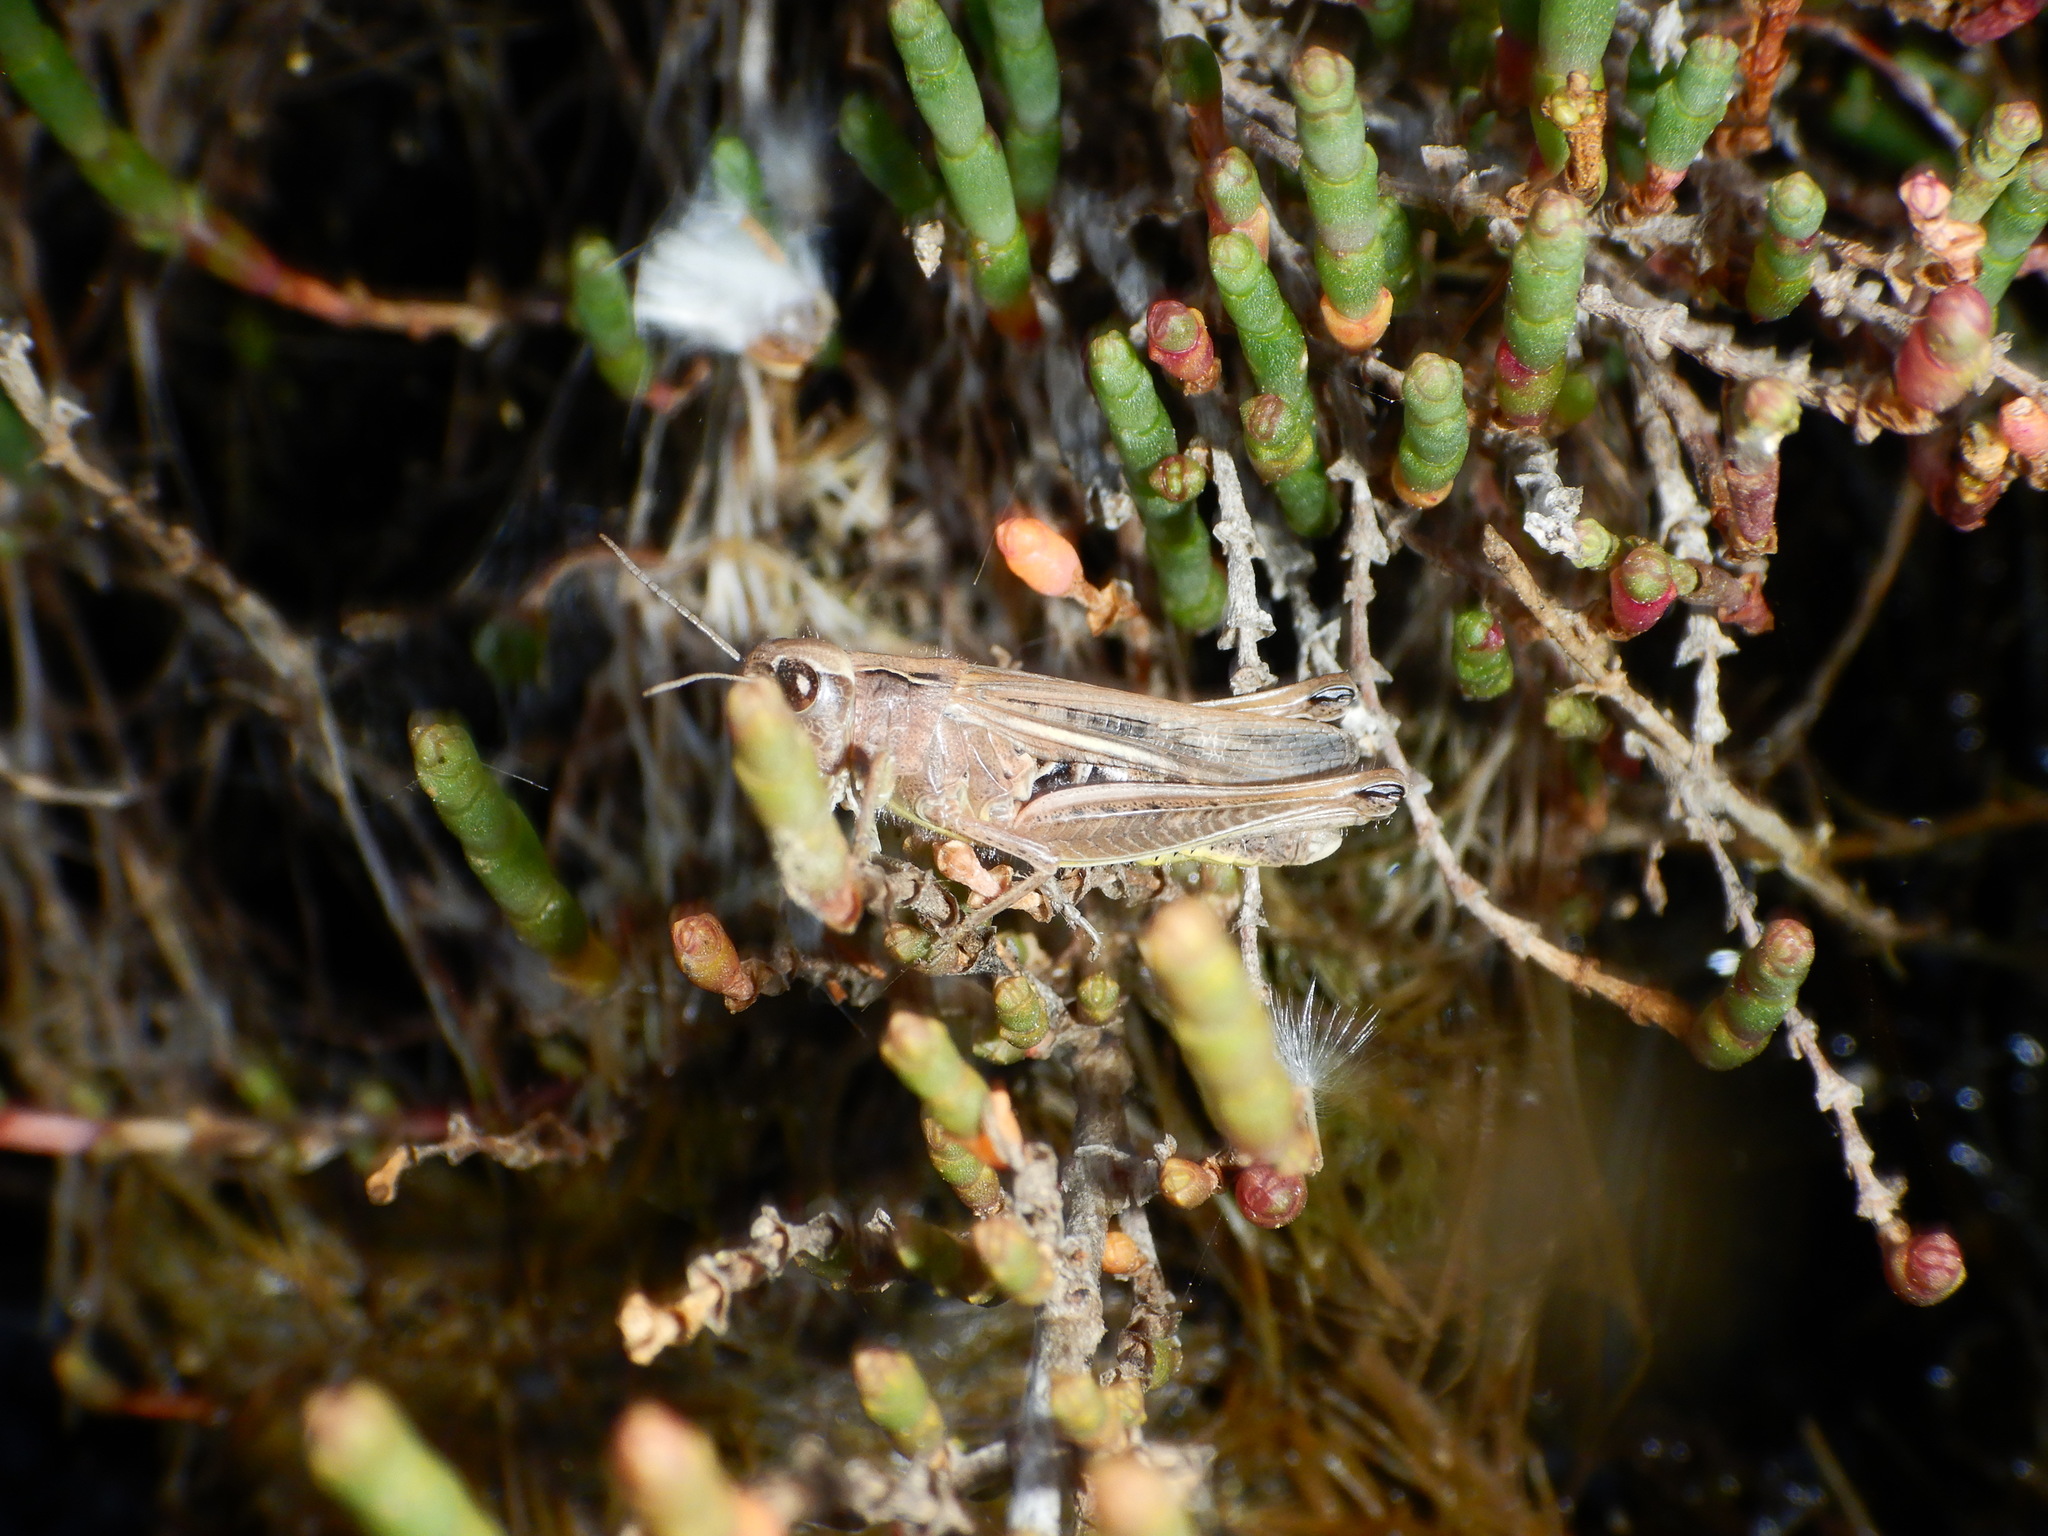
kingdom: Animalia
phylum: Arthropoda
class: Insecta
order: Orthoptera
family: Acrididae
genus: Chorthippus
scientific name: Chorthippus apicalis
